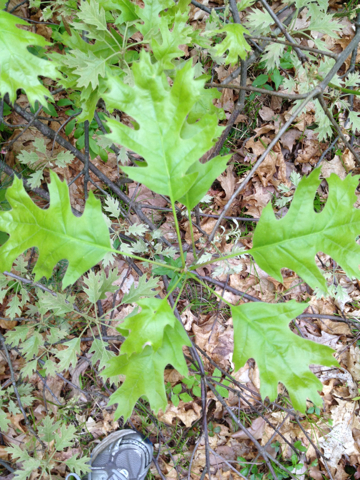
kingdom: Plantae
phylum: Tracheophyta
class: Magnoliopsida
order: Fagales
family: Fagaceae
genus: Quercus
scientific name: Quercus rubra
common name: Red oak
